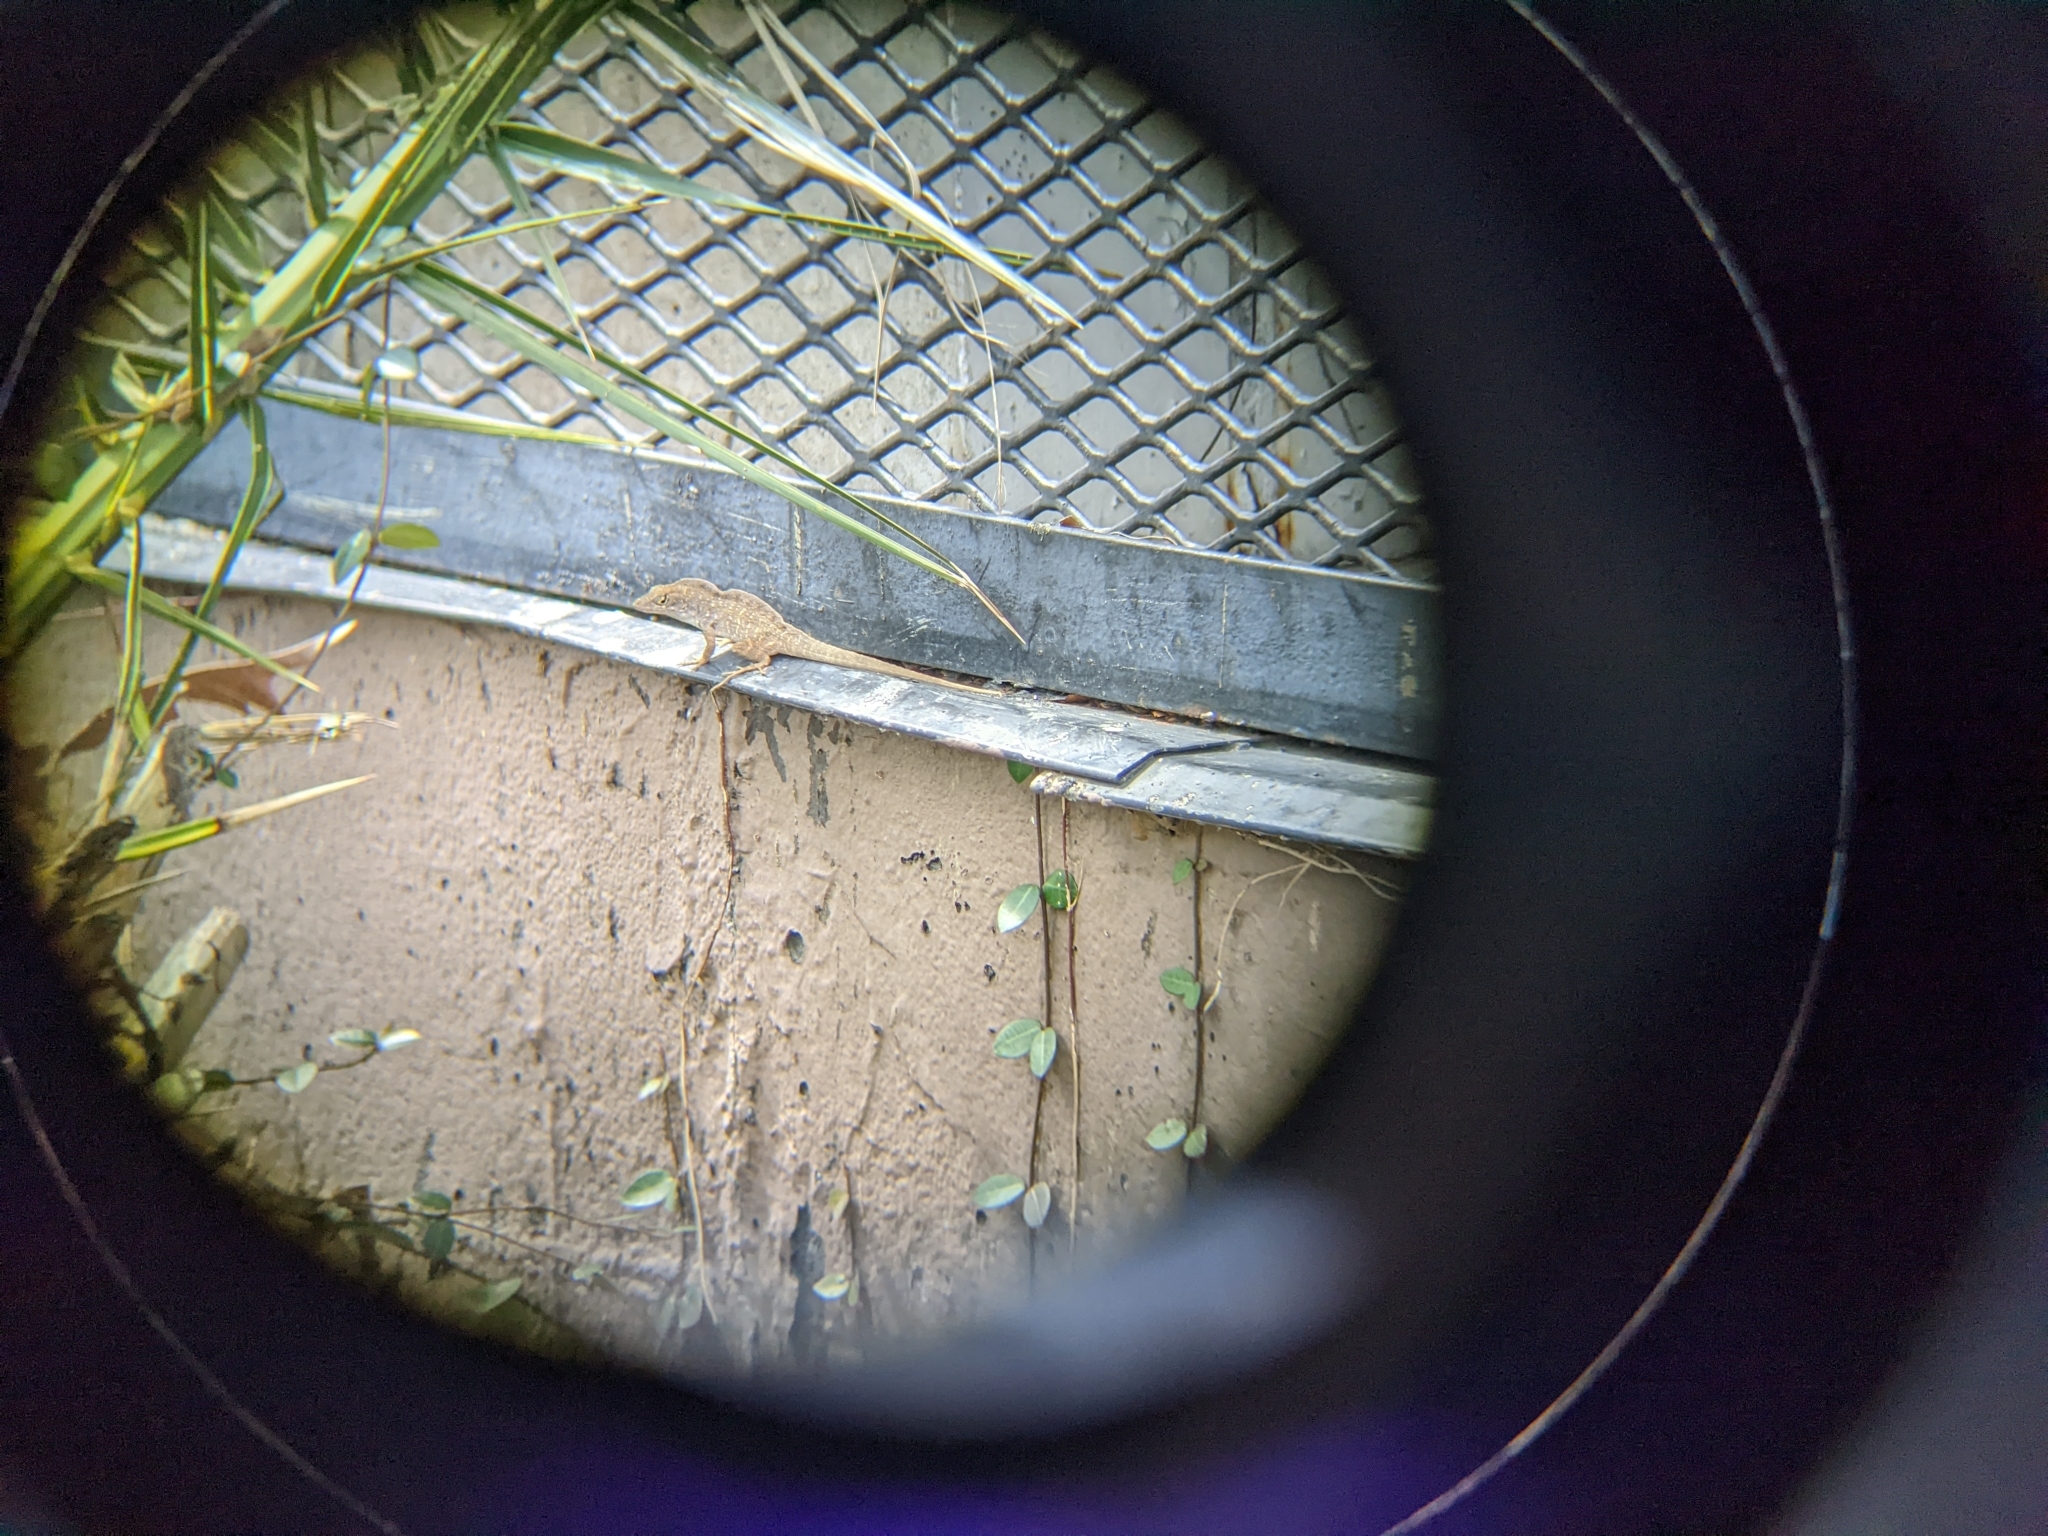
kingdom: Animalia
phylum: Chordata
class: Squamata
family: Dactyloidae
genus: Anolis
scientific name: Anolis sagrei
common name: Brown anole
